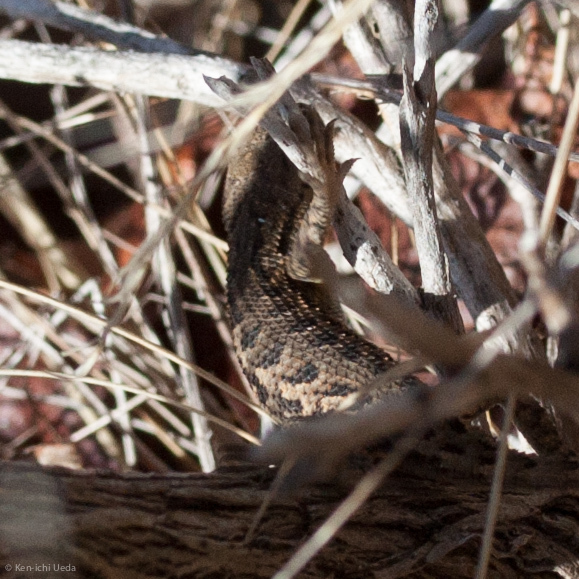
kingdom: Animalia
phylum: Chordata
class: Squamata
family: Phrynosomatidae
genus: Sceloporus
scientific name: Sceloporus occidentalis
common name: Western fence lizard
